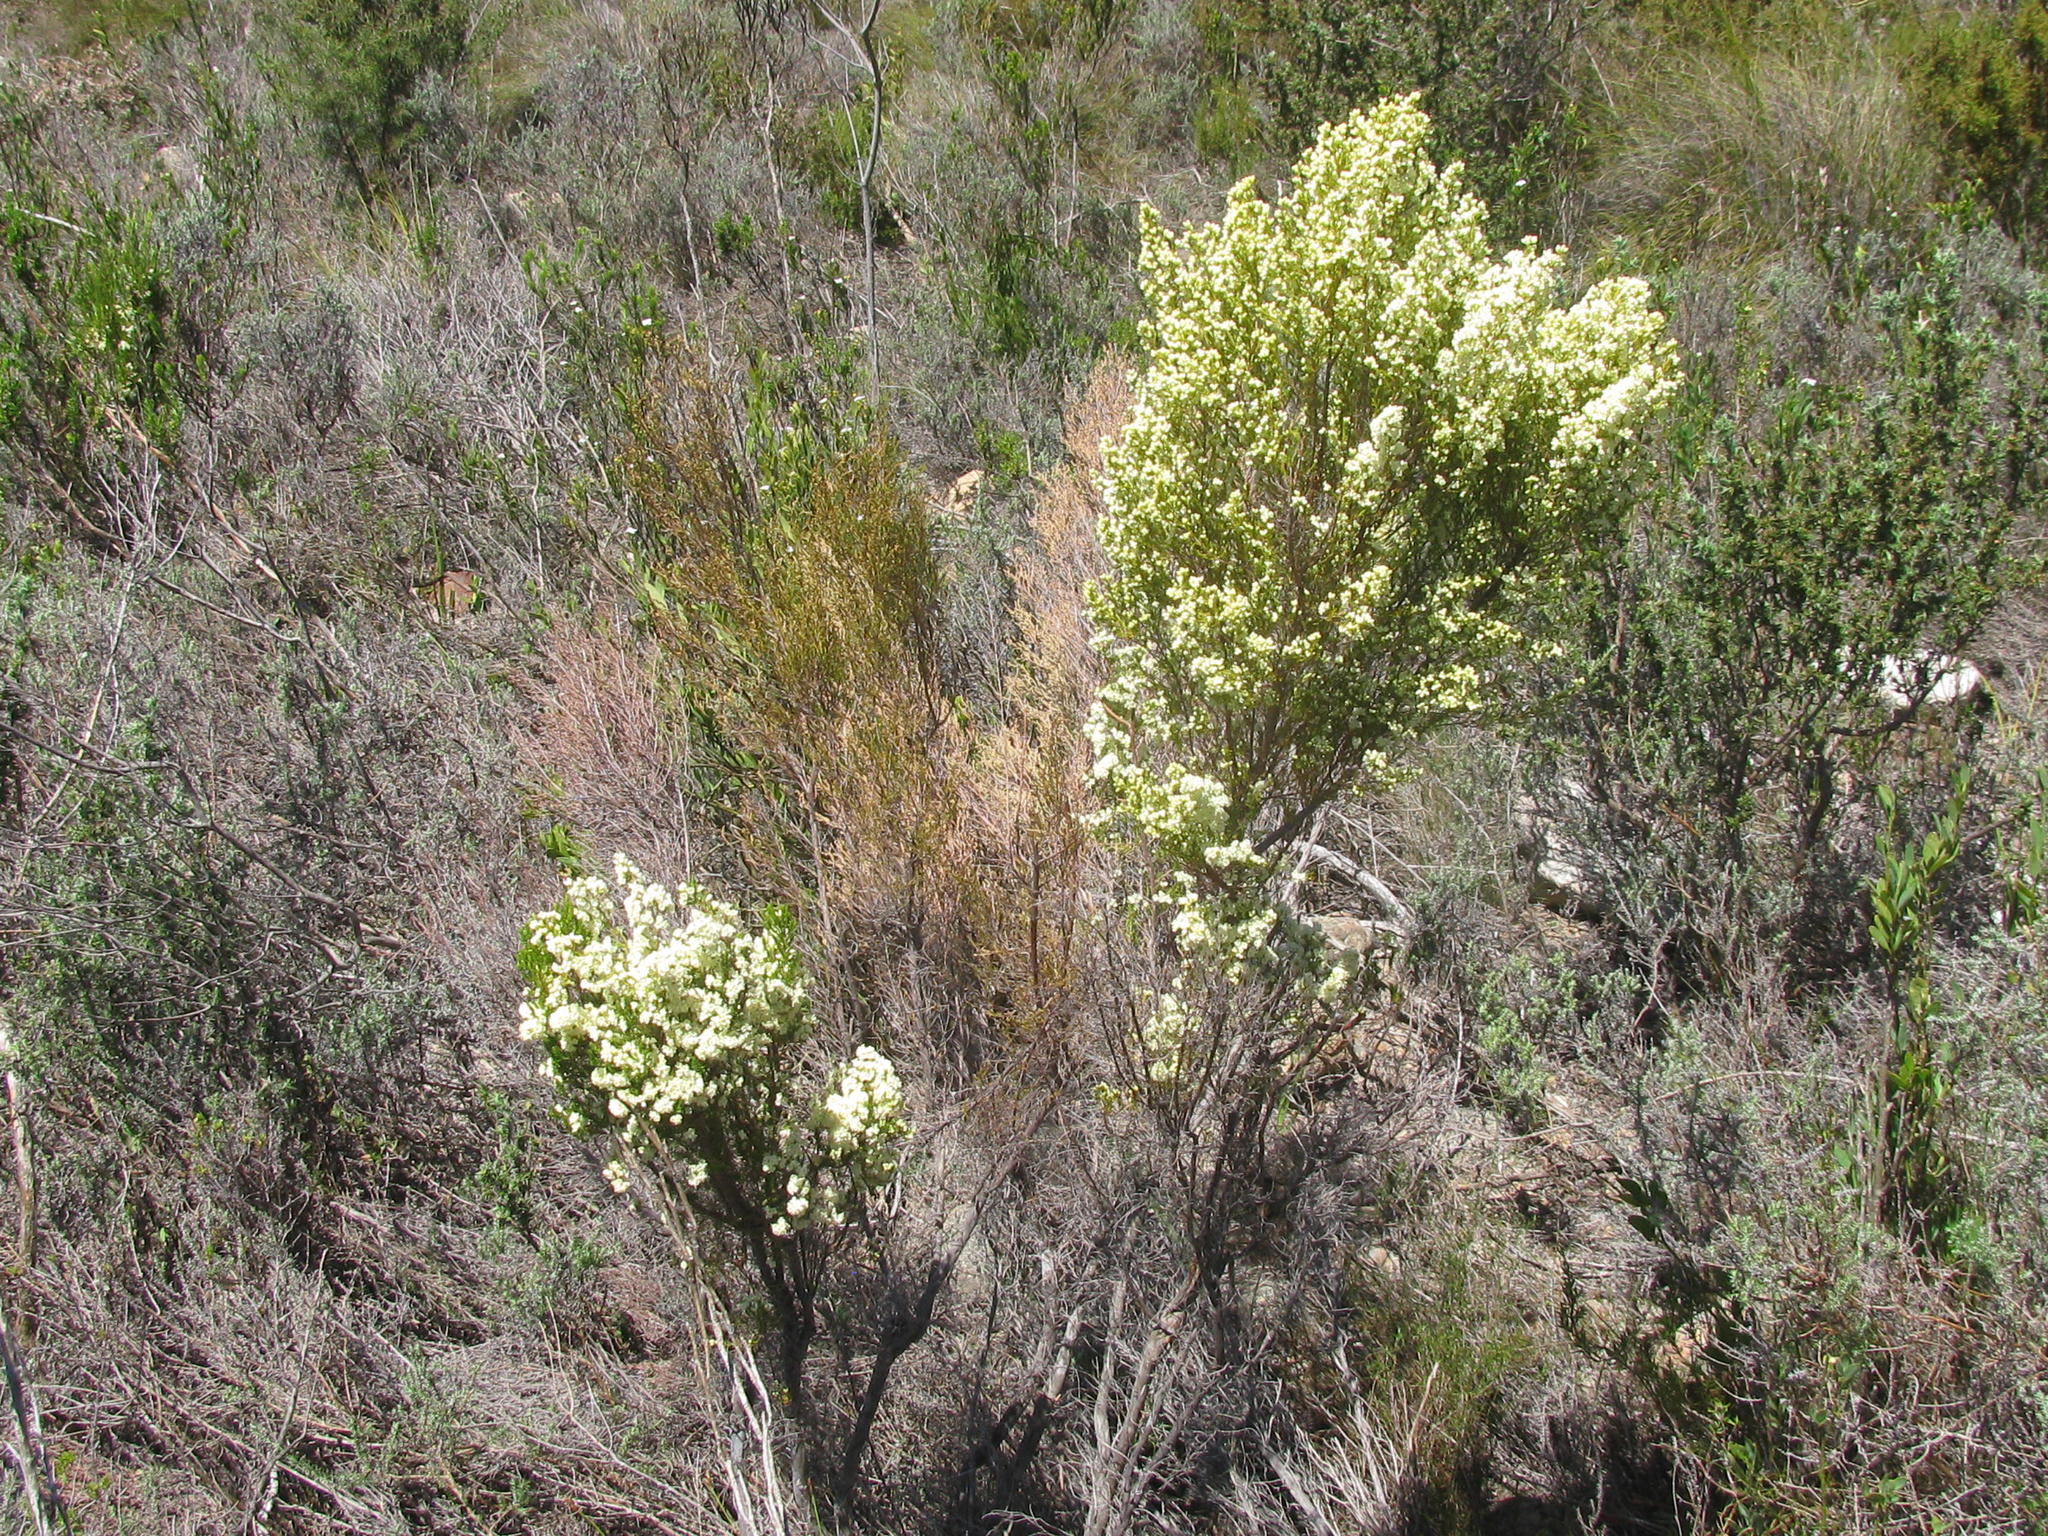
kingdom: Plantae
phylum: Tracheophyta
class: Magnoliopsida
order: Ericales
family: Ericaceae
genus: Erica
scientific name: Erica leucanthera
